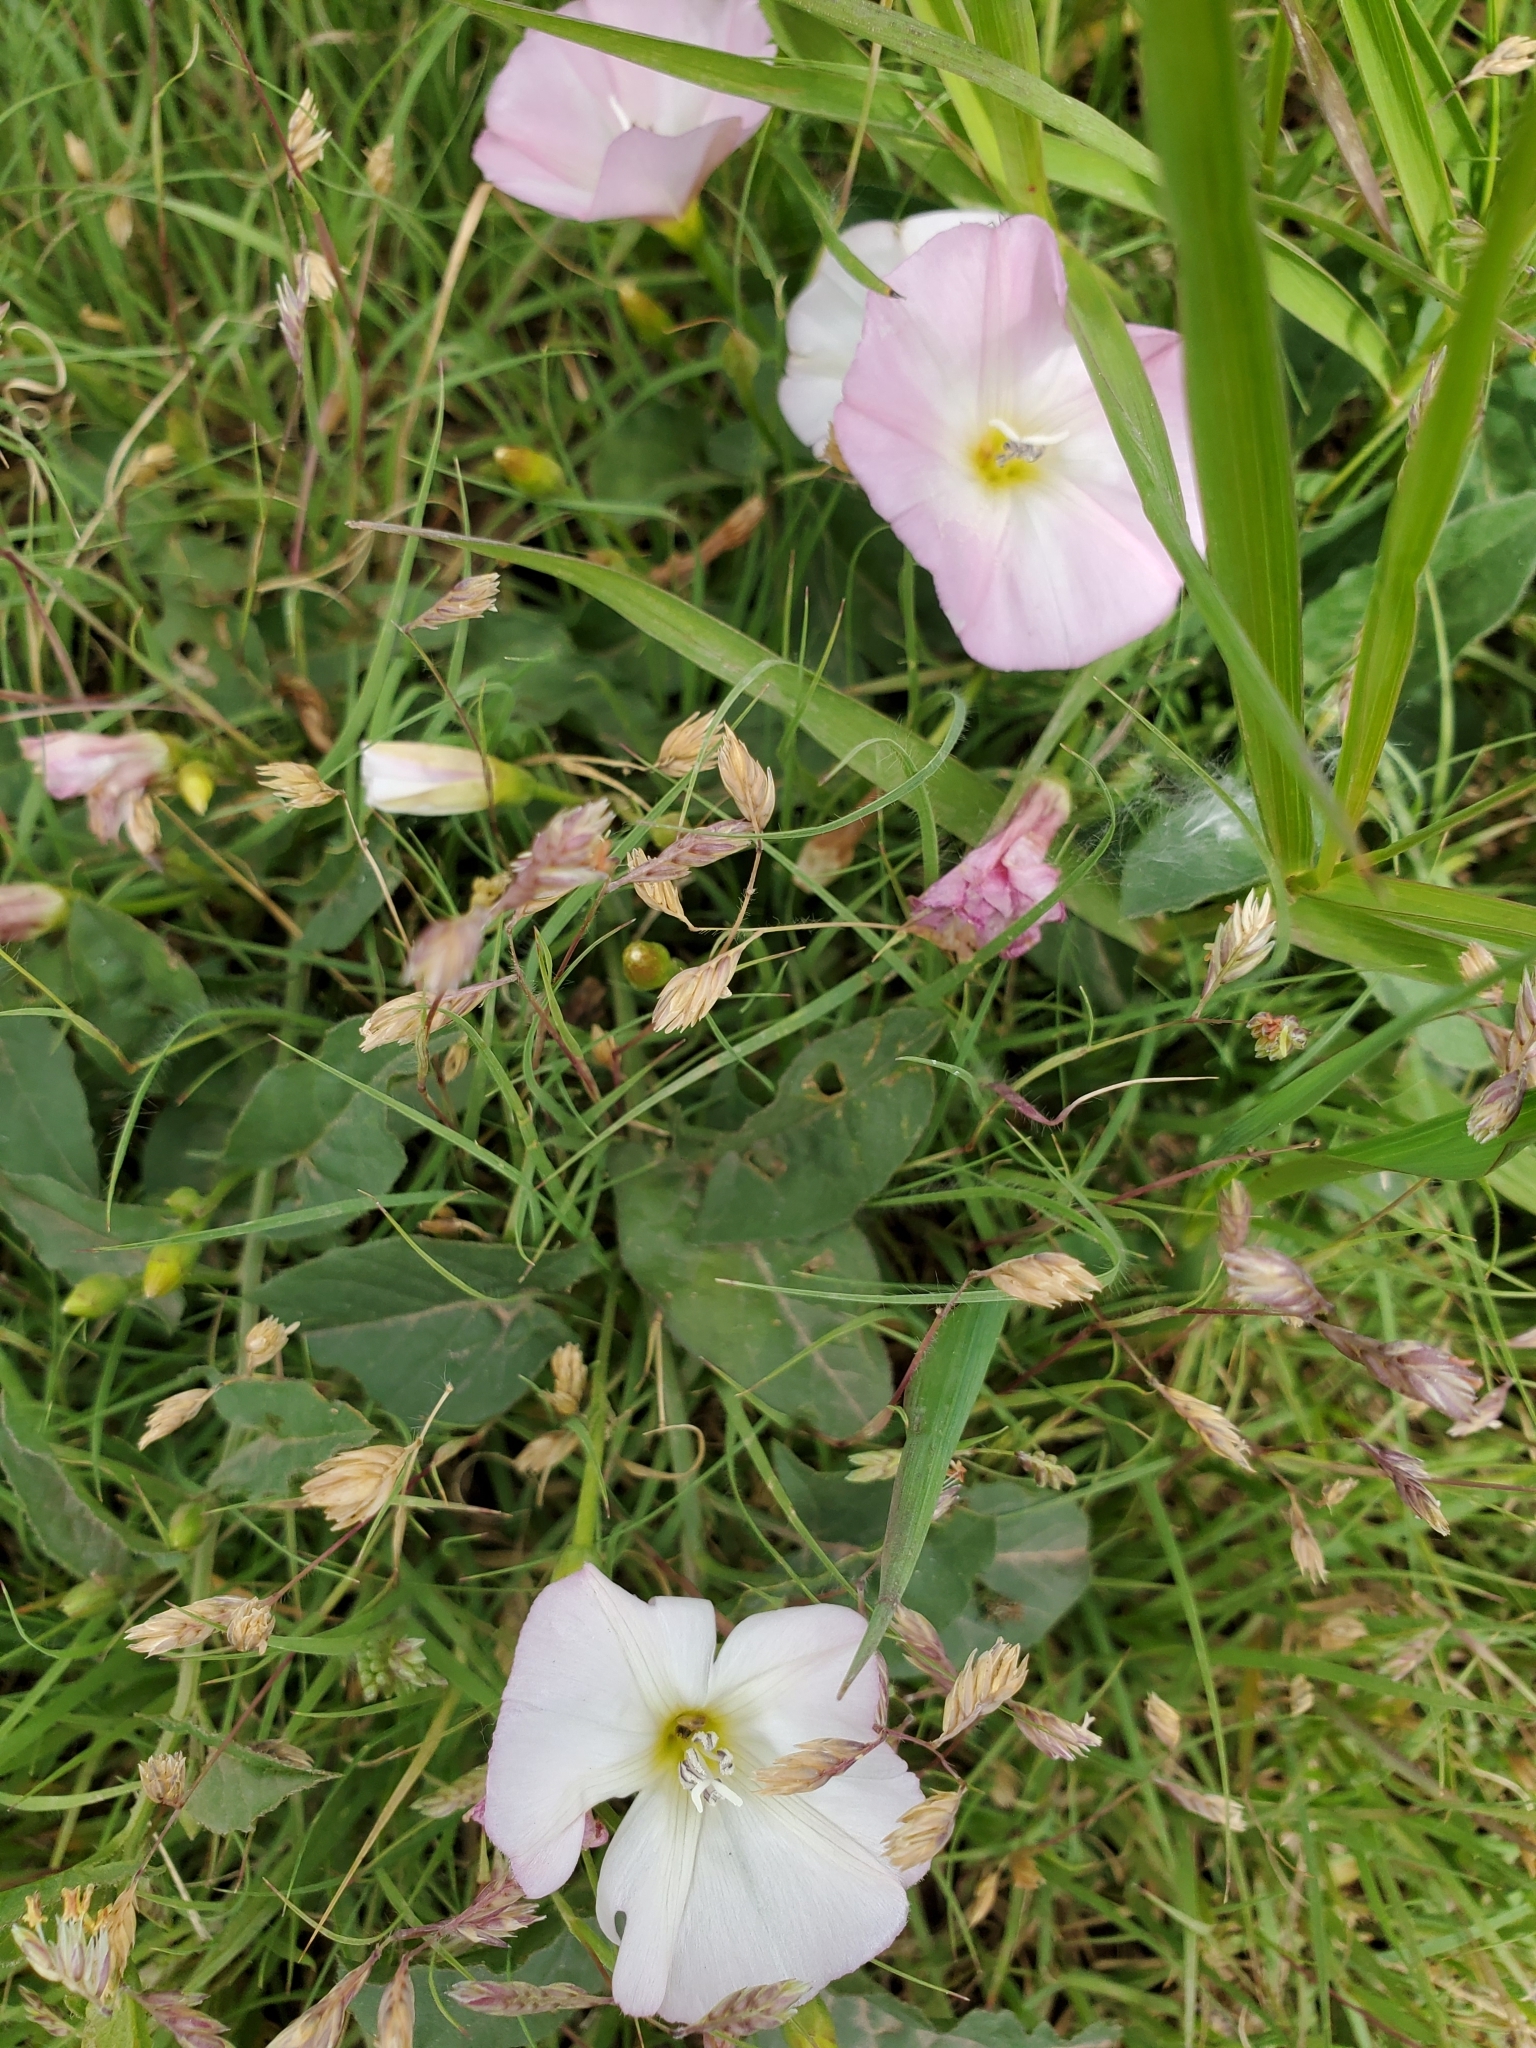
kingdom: Plantae
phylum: Tracheophyta
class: Magnoliopsida
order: Solanales
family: Convolvulaceae
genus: Convolvulus
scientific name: Convolvulus arvensis
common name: Field bindweed
